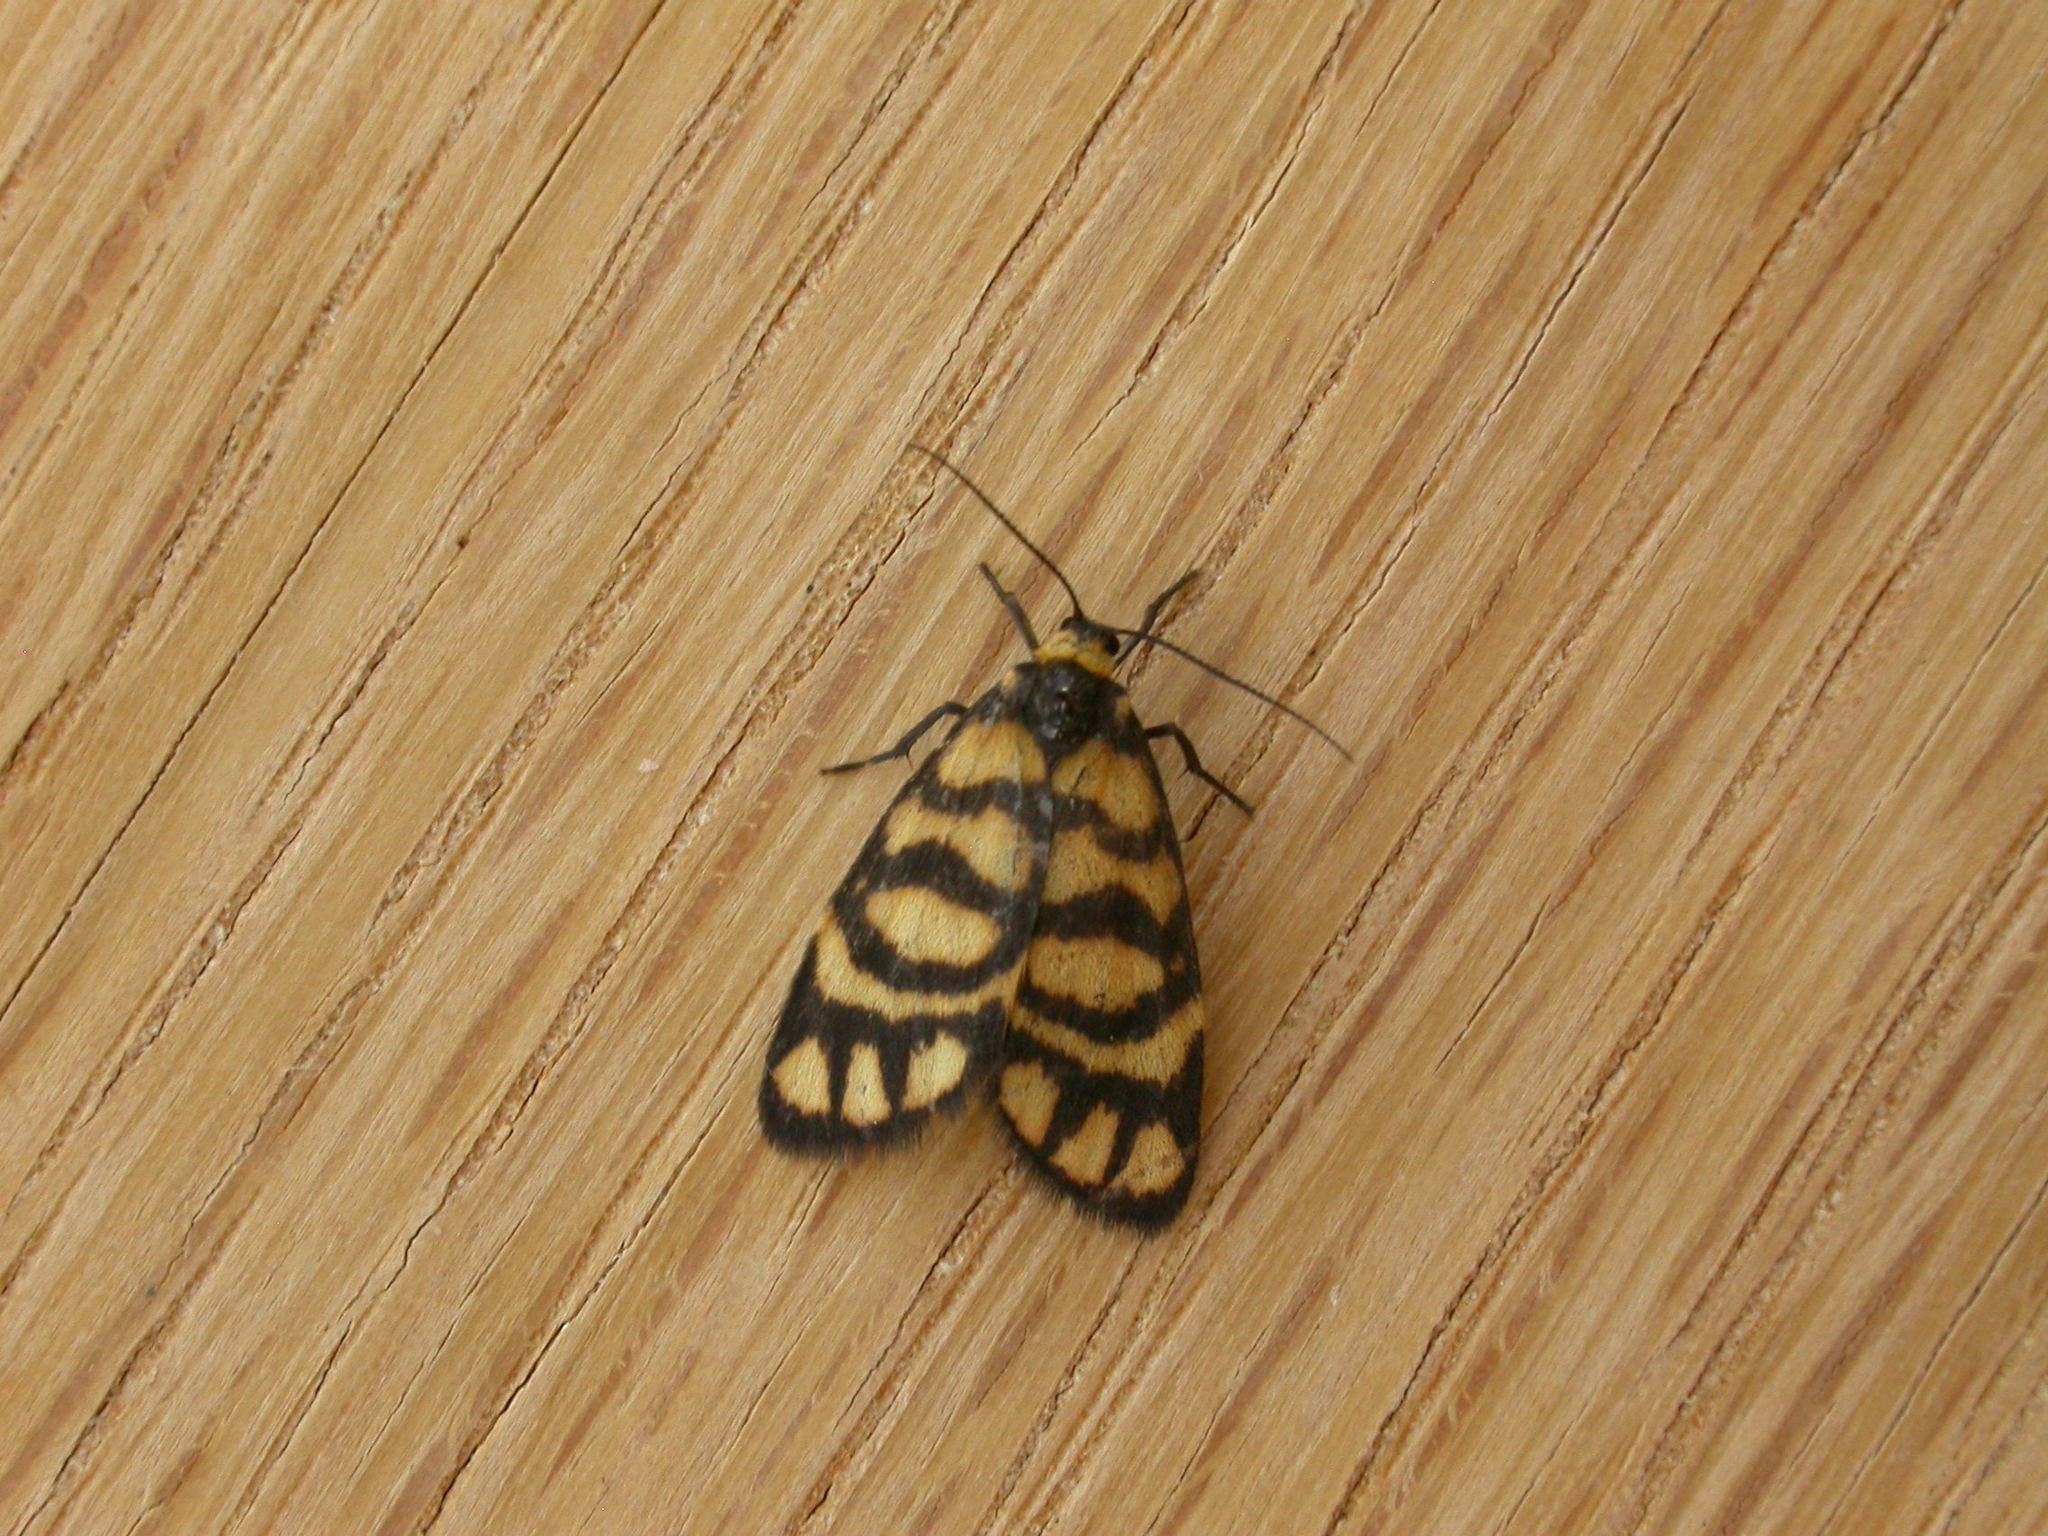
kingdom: Animalia
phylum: Arthropoda
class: Insecta
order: Lepidoptera
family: Erebidae
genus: Asura
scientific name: Asura lydia
